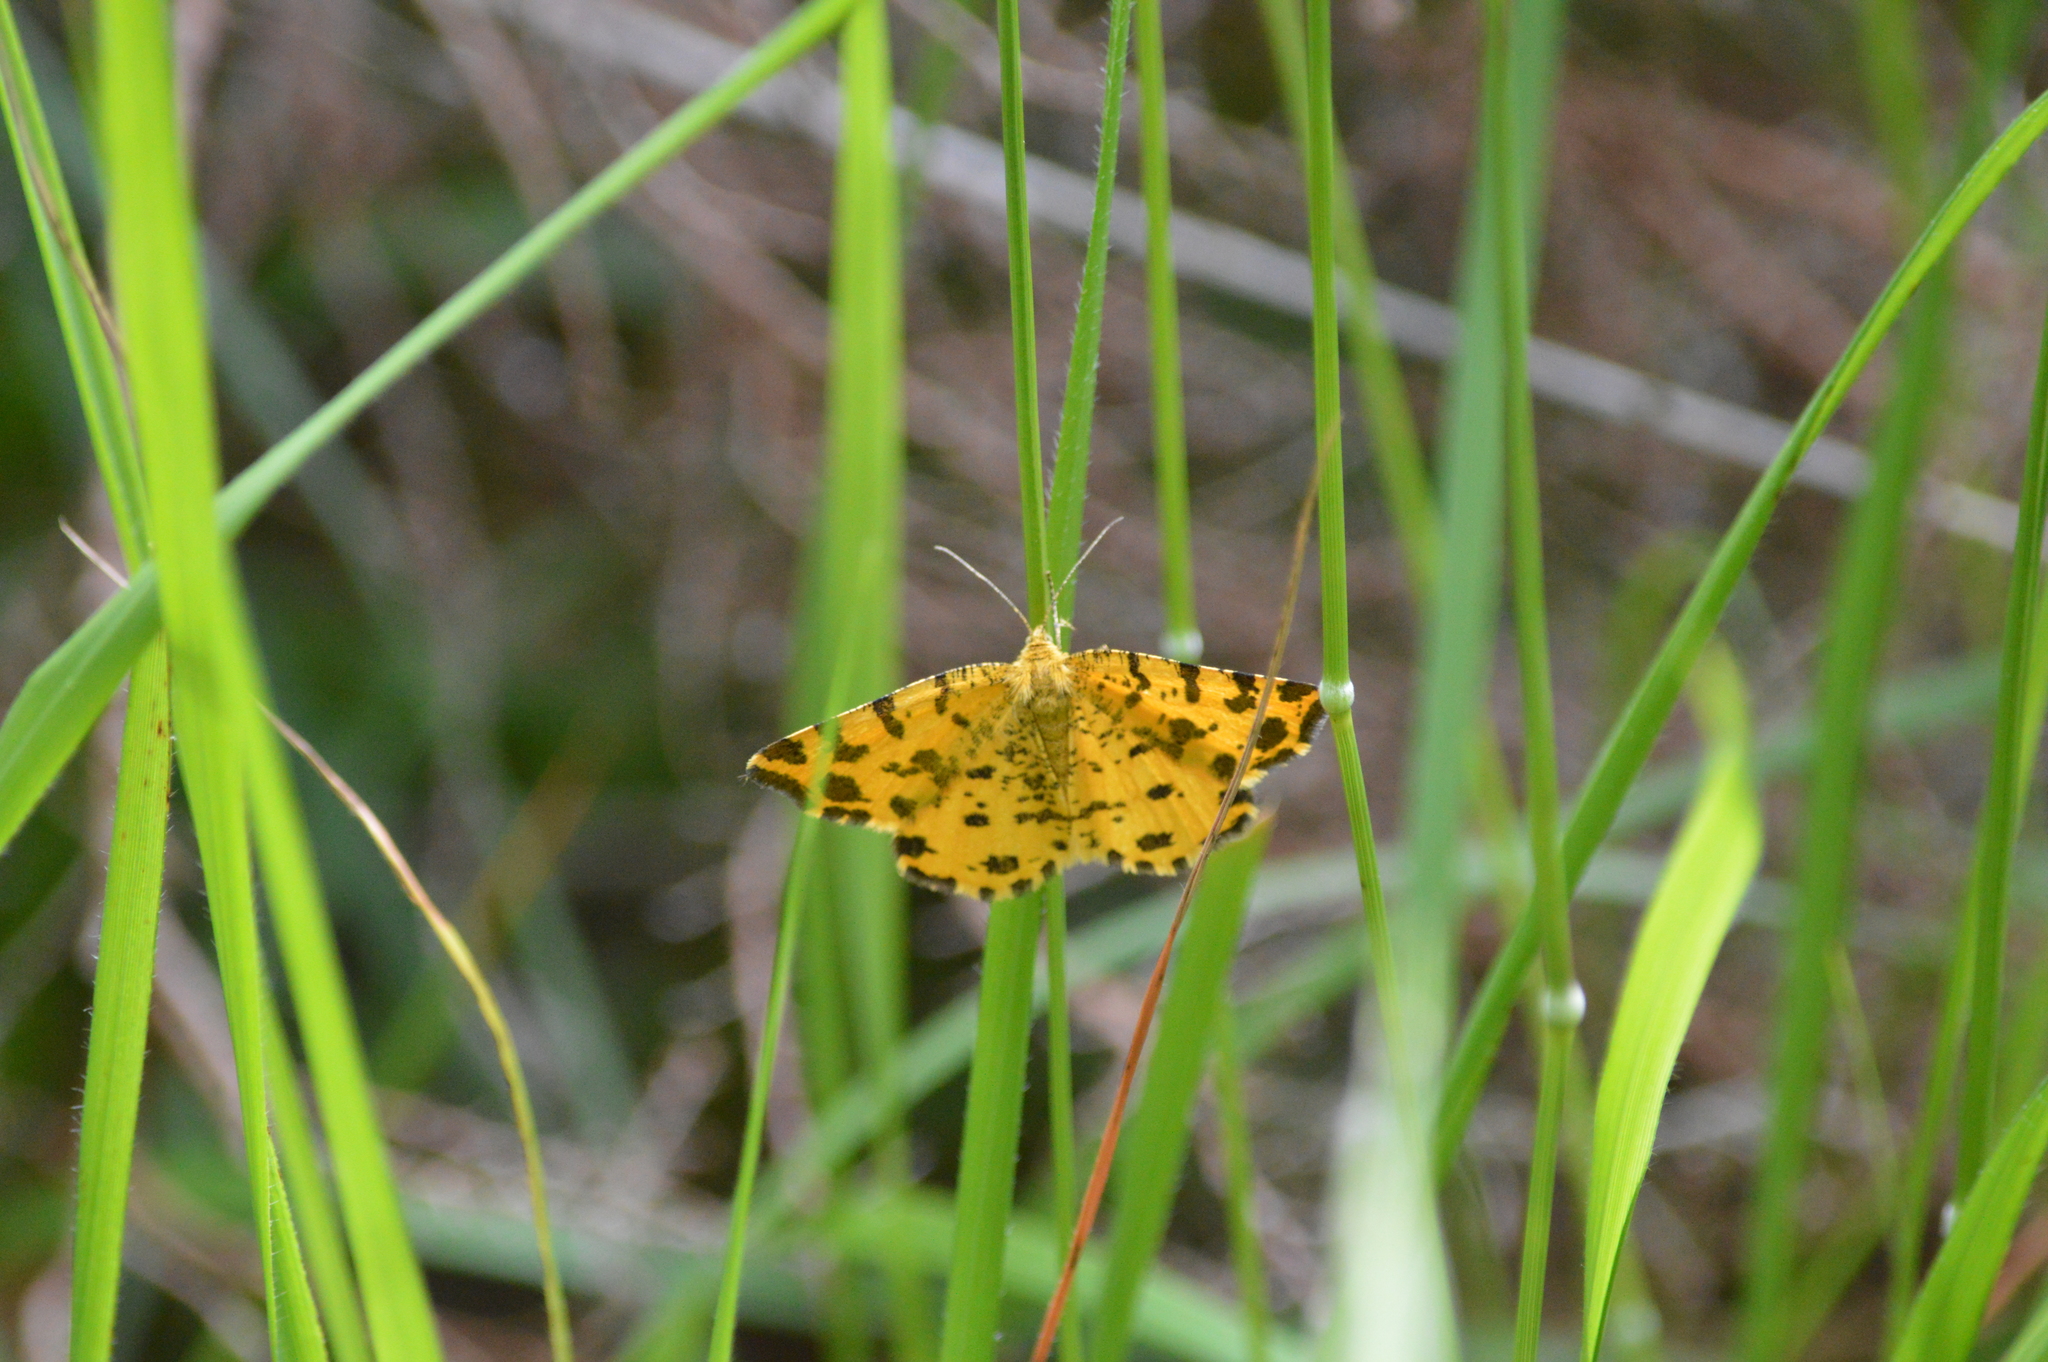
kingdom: Animalia
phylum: Arthropoda
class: Insecta
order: Lepidoptera
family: Geometridae
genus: Pseudopanthera
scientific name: Pseudopanthera macularia
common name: Speckled yellow
